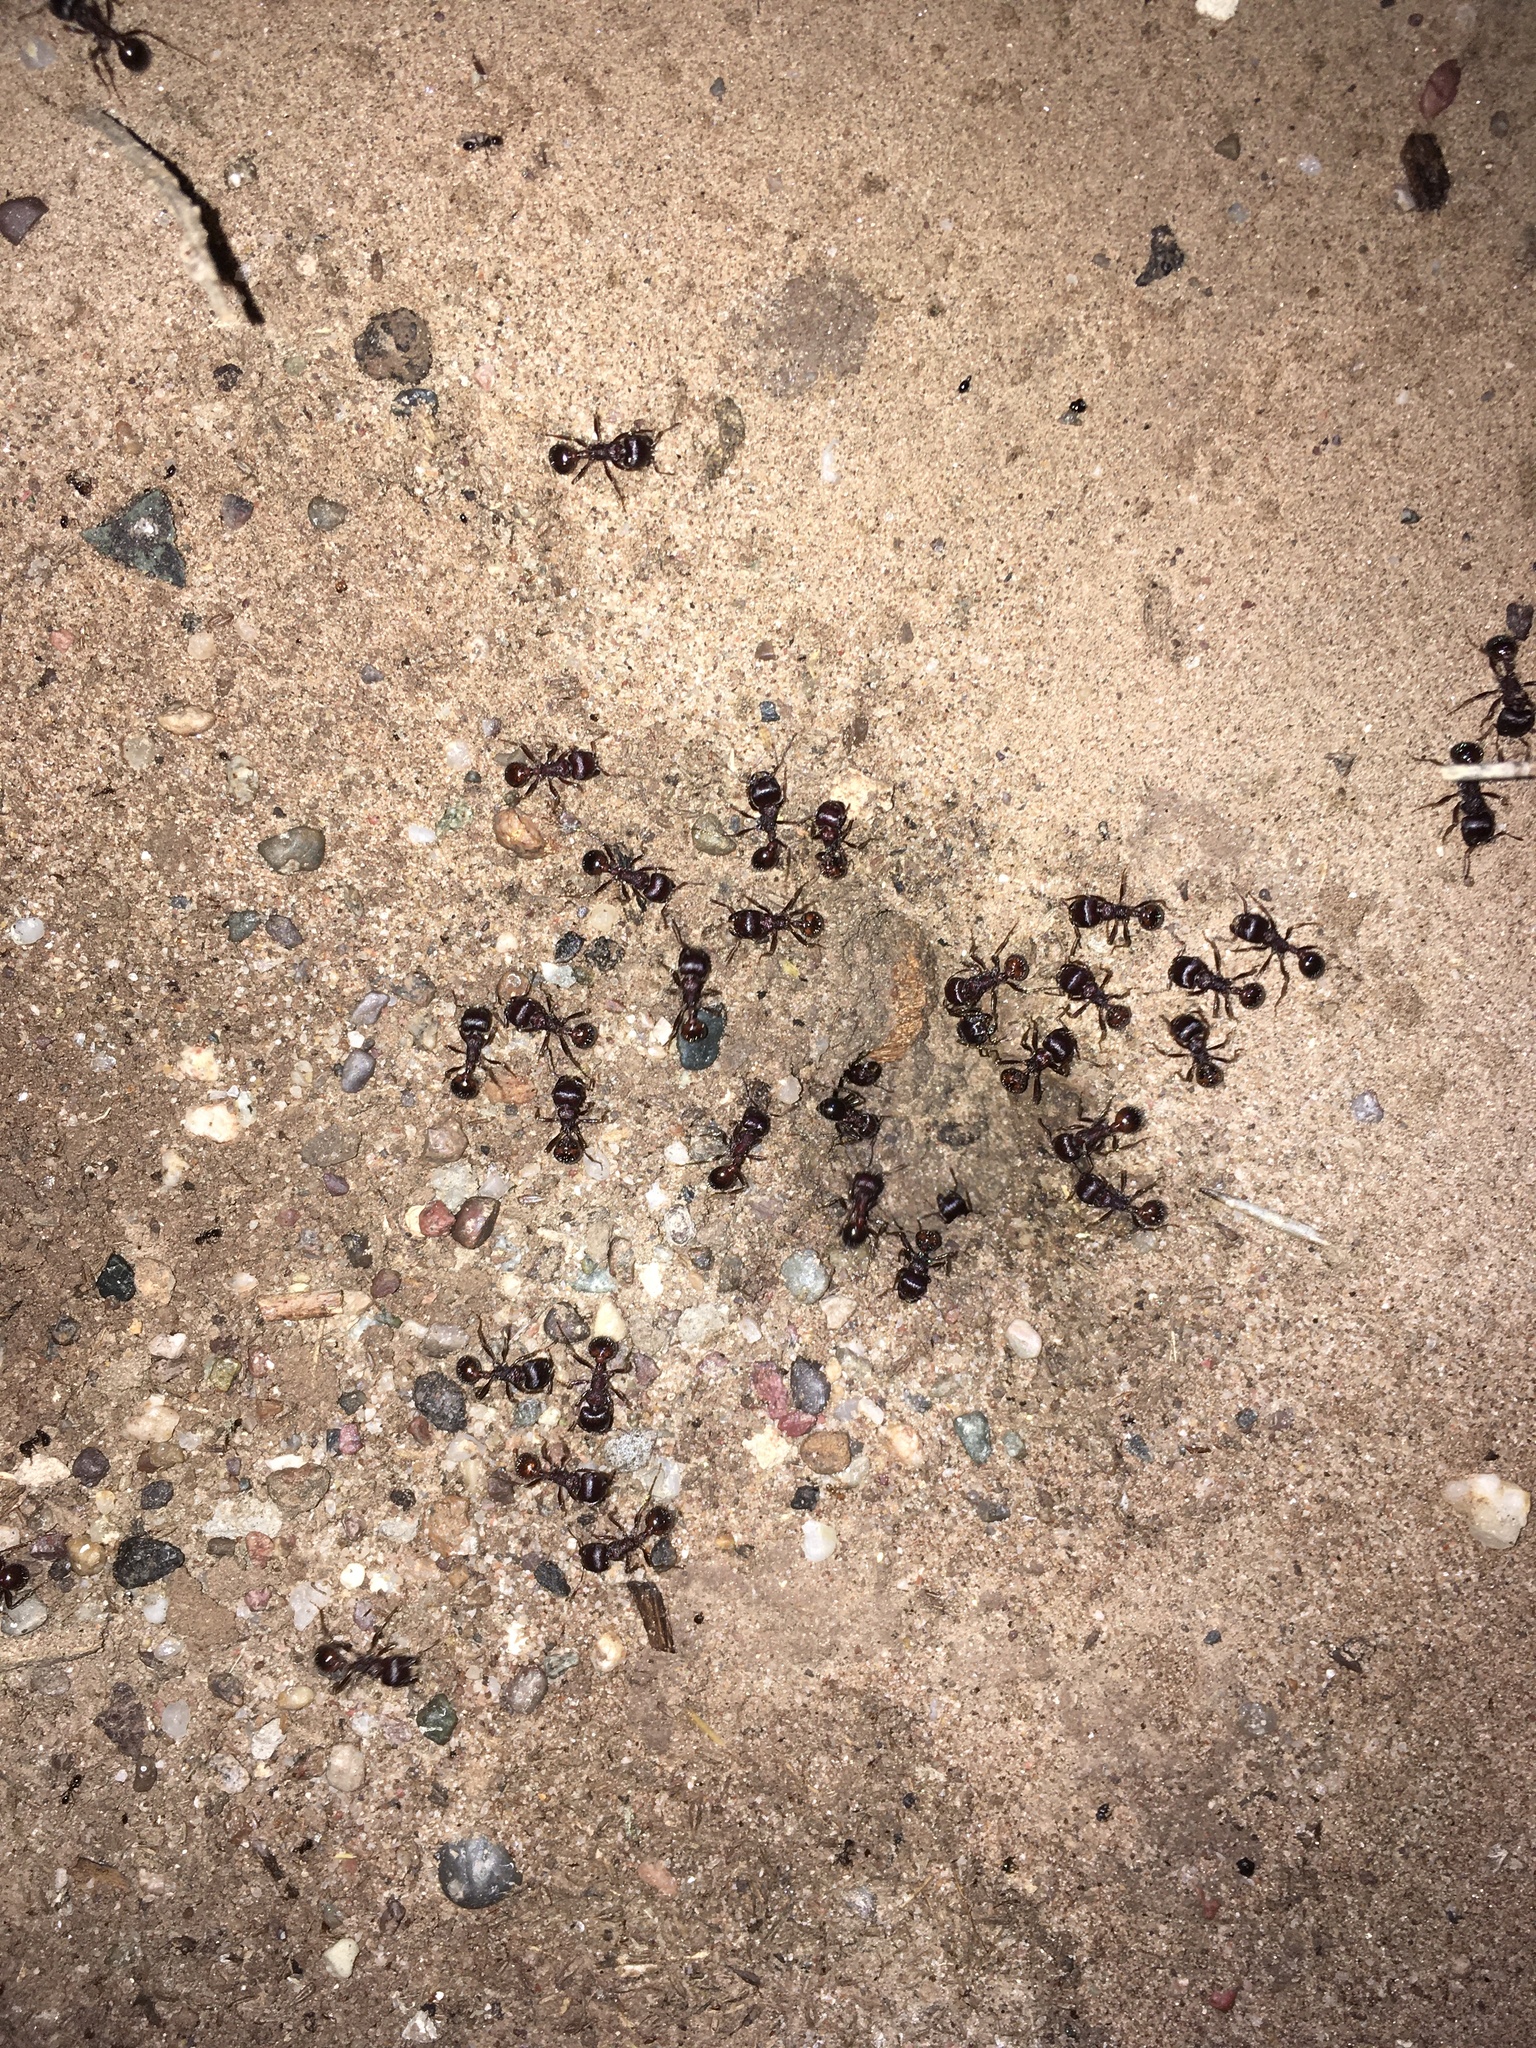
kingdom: Animalia
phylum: Arthropoda
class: Insecta
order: Hymenoptera
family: Formicidae
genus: Pogonomyrmex
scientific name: Pogonomyrmex rugosus
